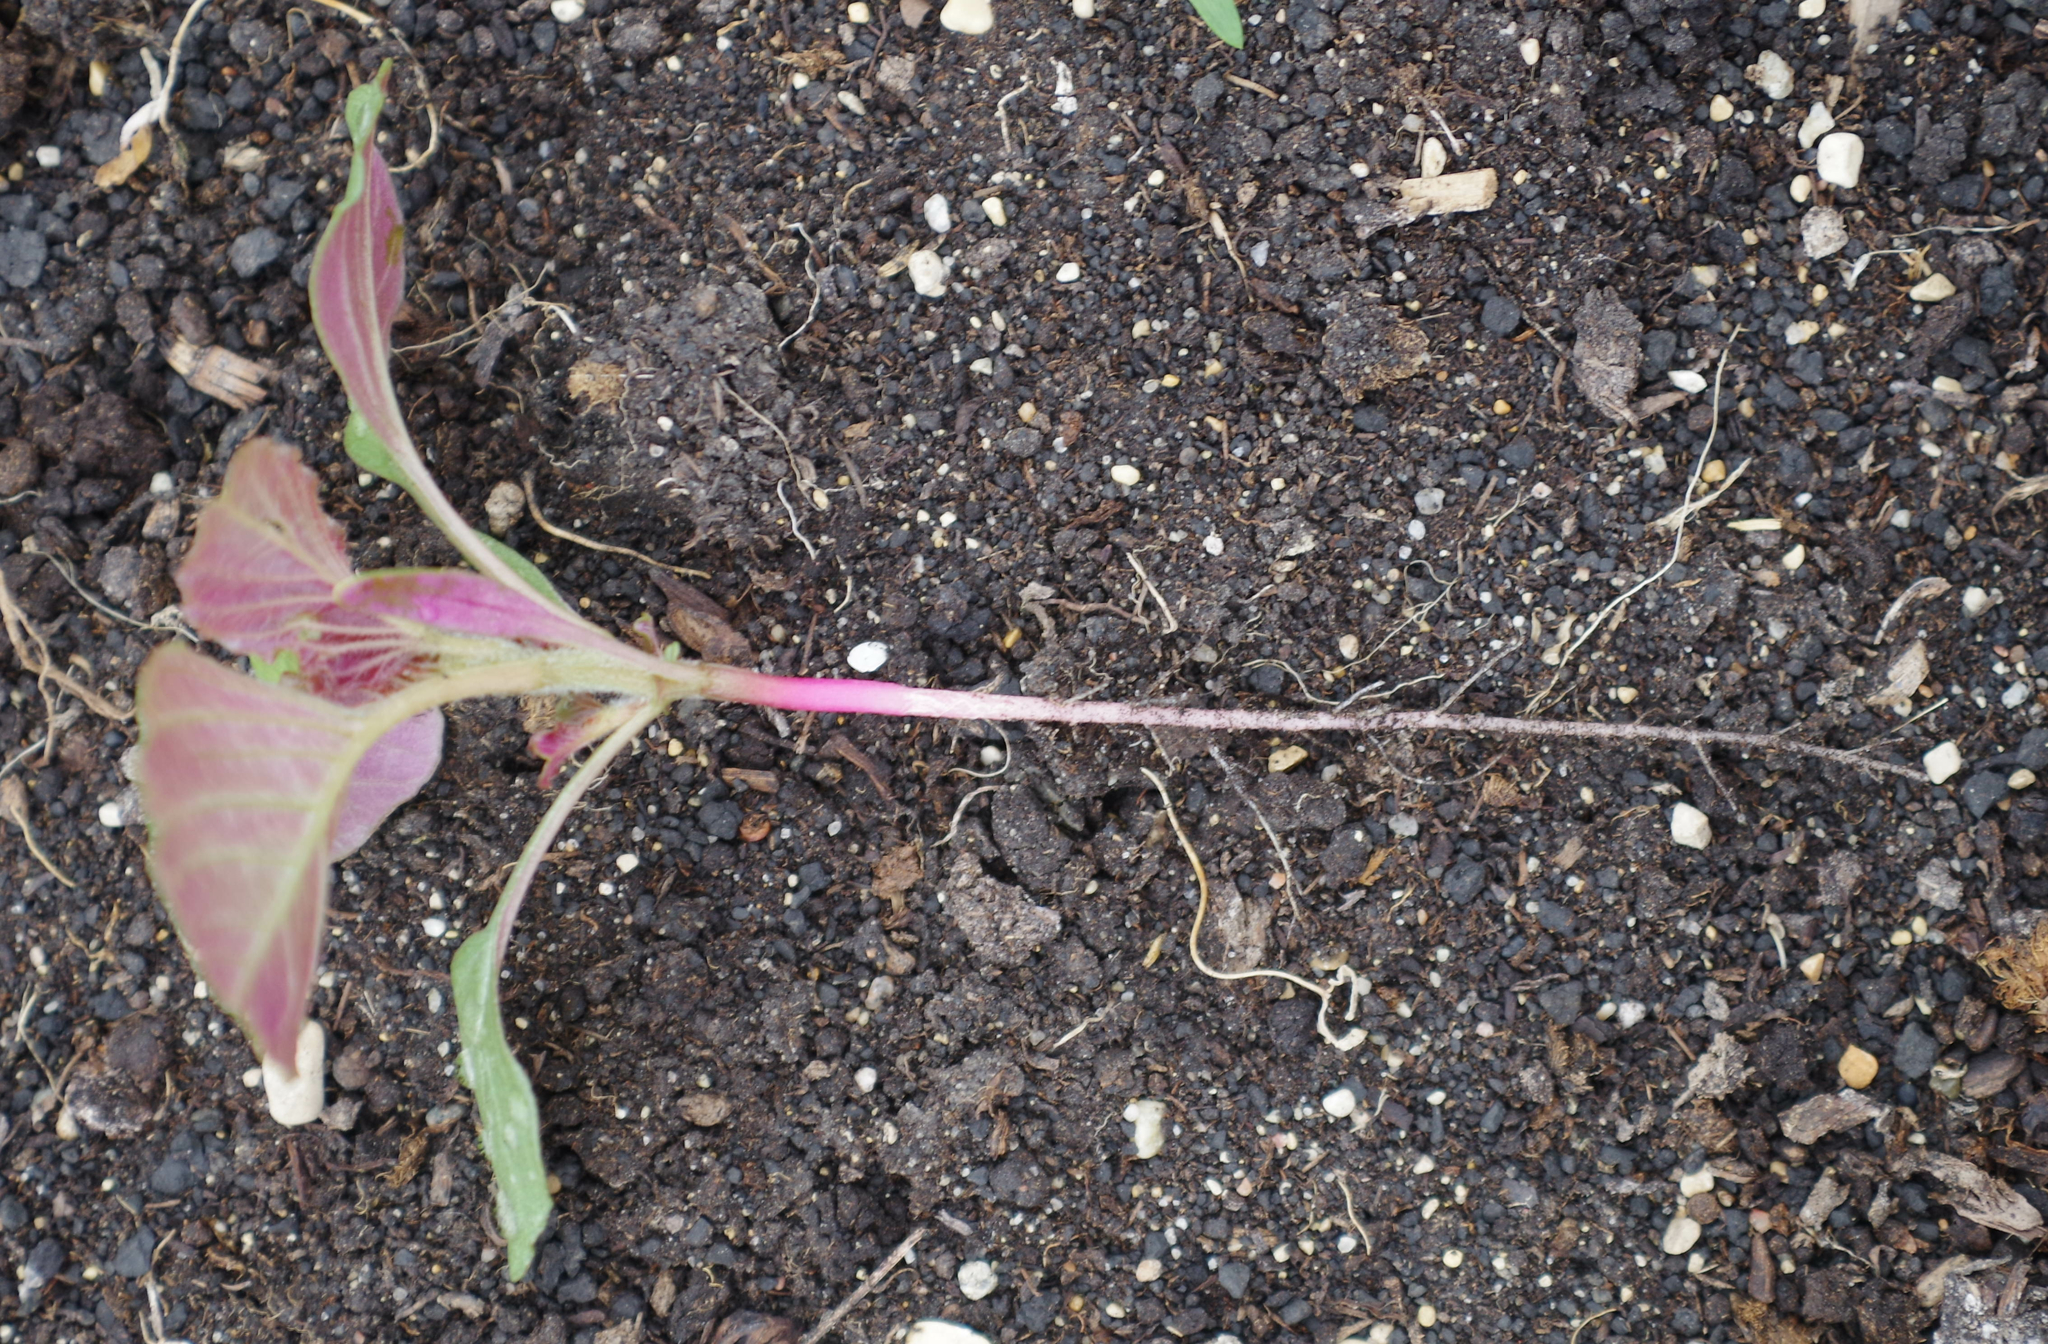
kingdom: Plantae
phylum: Tracheophyta
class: Magnoliopsida
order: Caryophyllales
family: Amaranthaceae
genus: Amaranthus
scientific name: Amaranthus retroflexus
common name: Redroot amaranth
